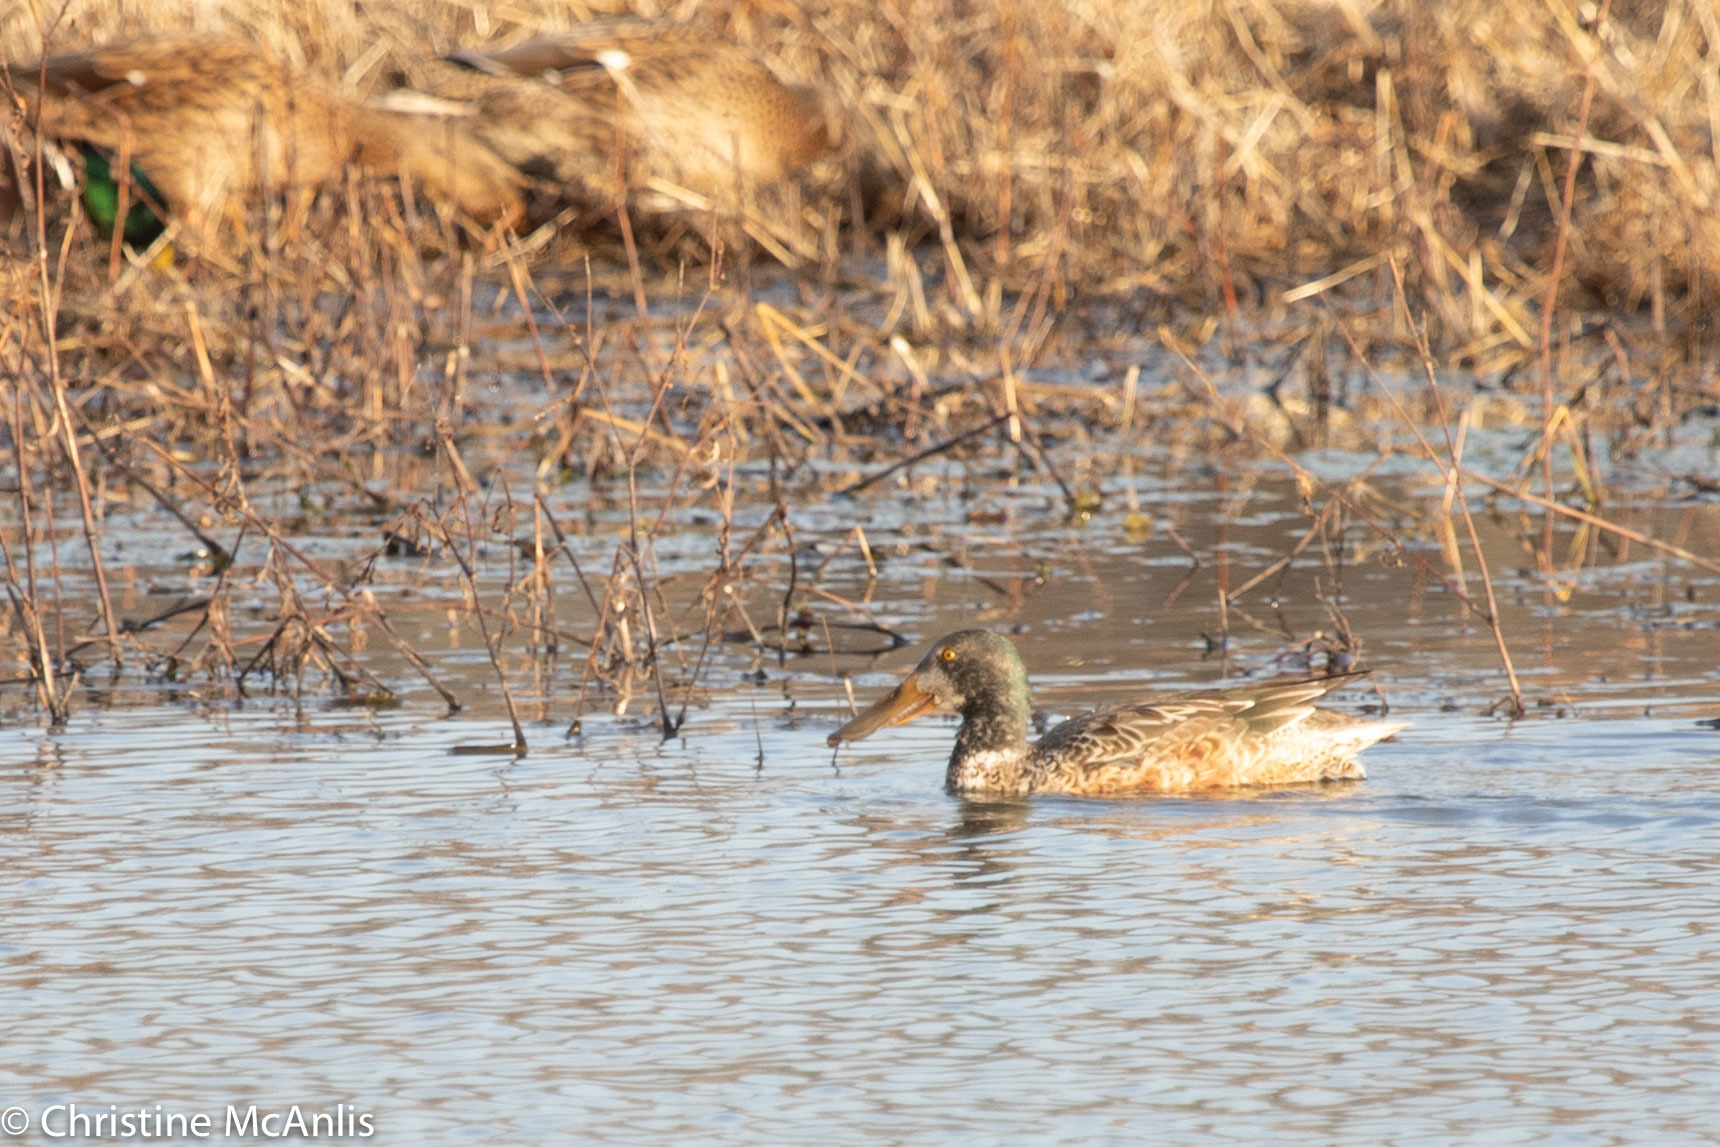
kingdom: Animalia
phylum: Chordata
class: Aves
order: Anseriformes
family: Anatidae
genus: Spatula
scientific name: Spatula clypeata
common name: Northern shoveler
